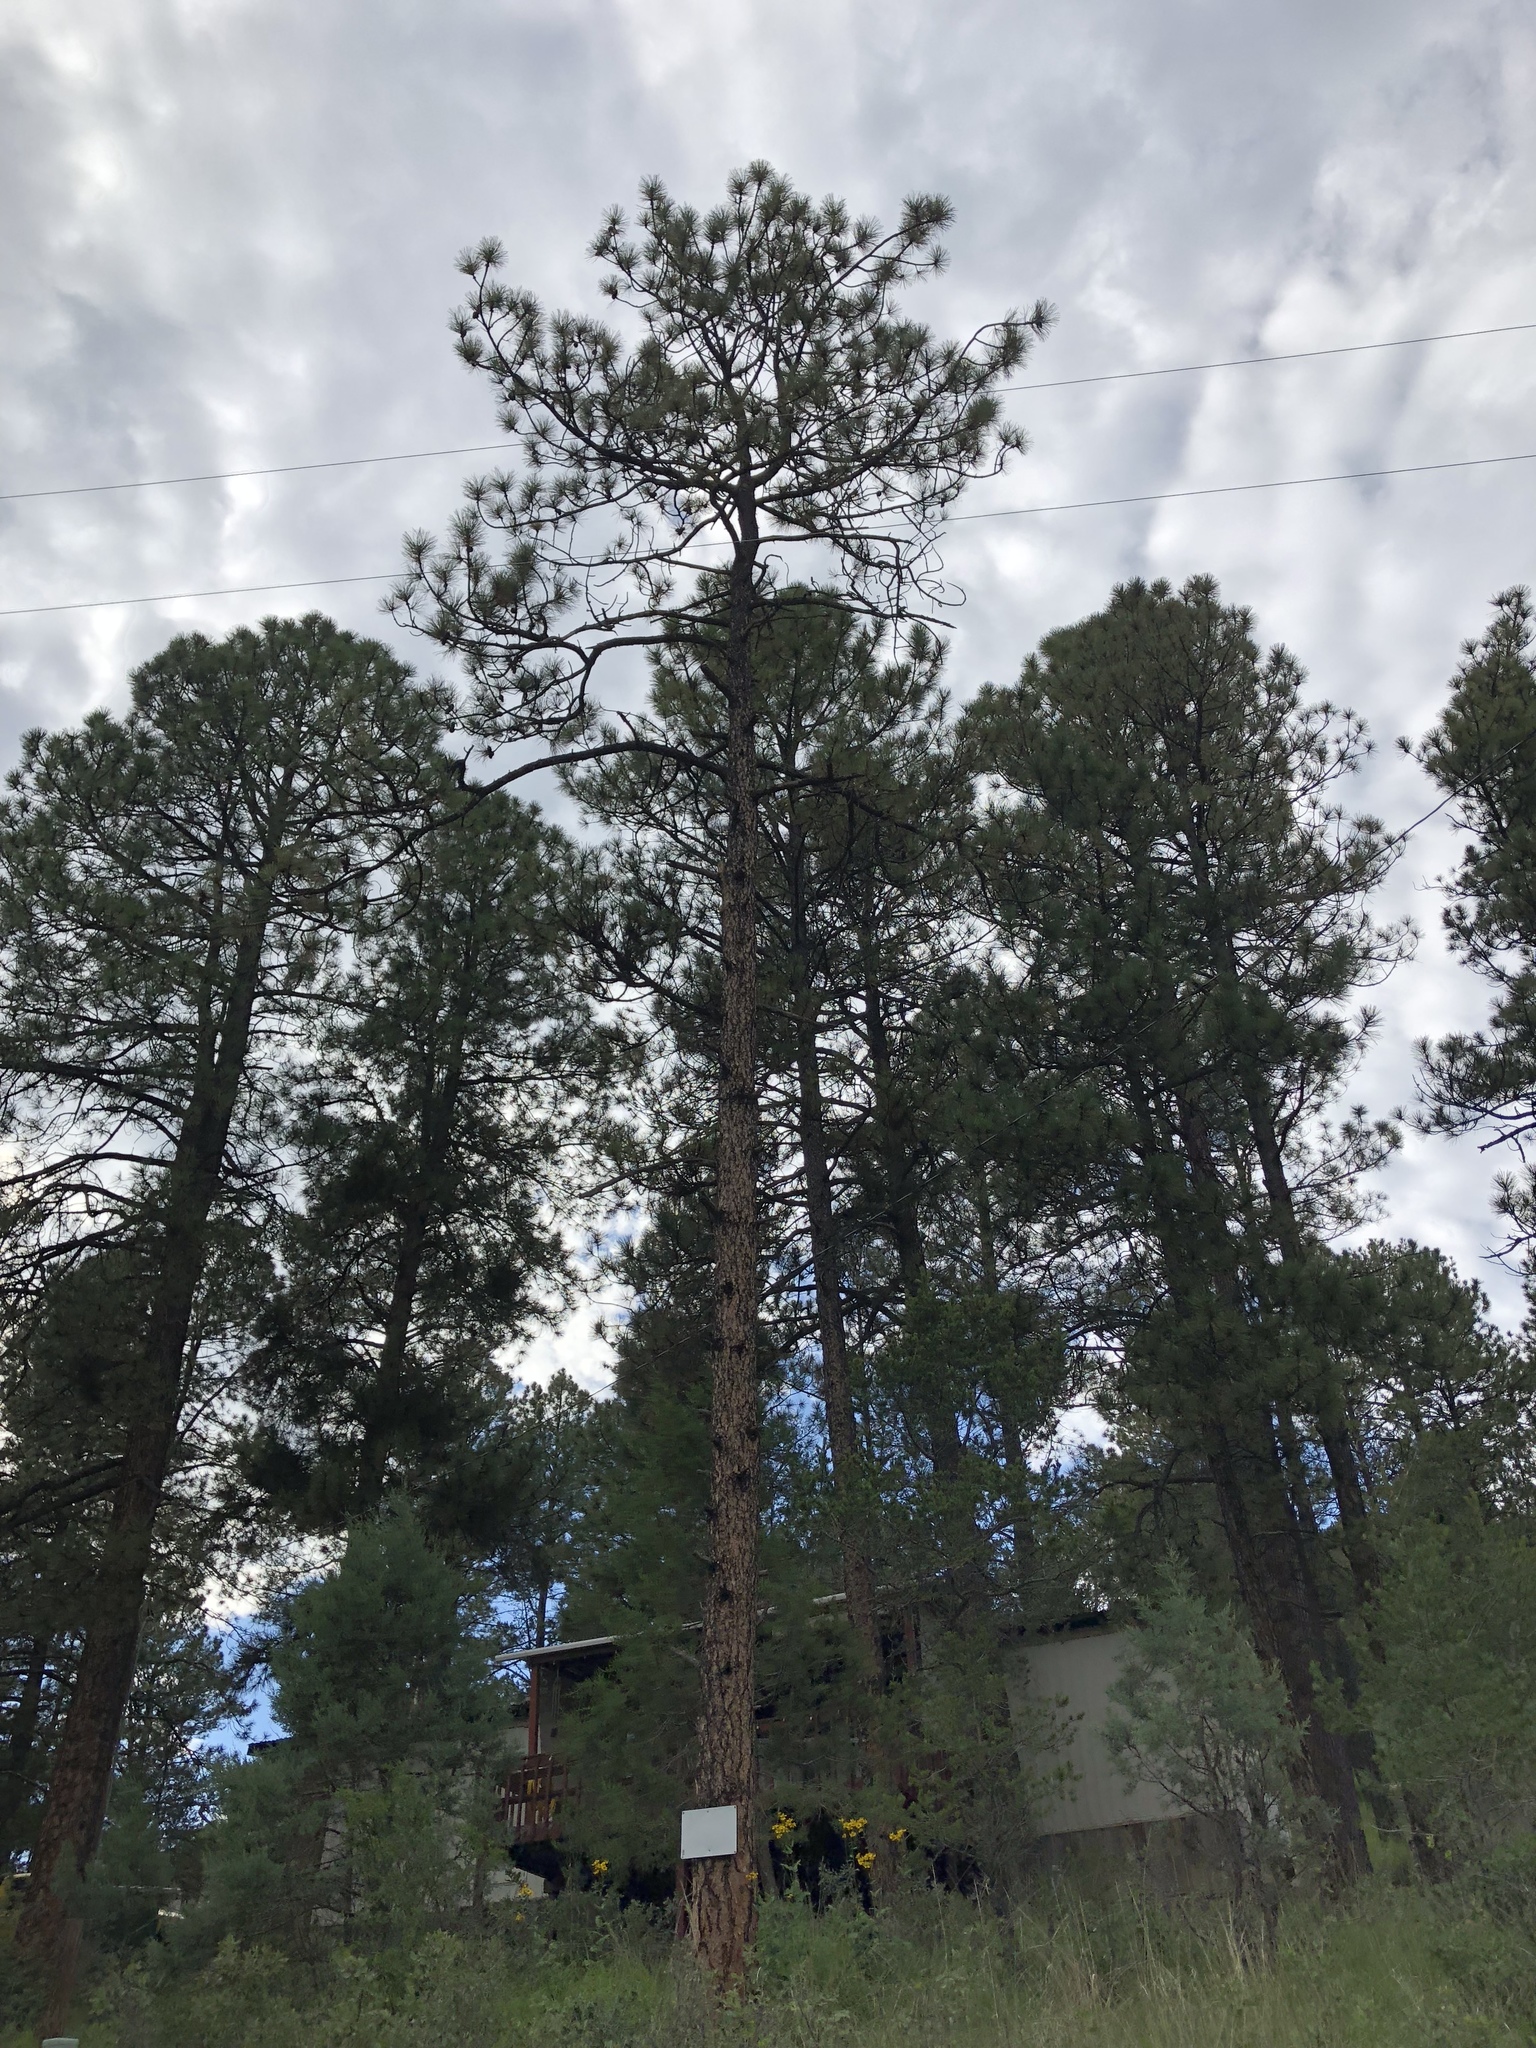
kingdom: Plantae
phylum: Tracheophyta
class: Pinopsida
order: Pinales
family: Pinaceae
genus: Pinus
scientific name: Pinus ponderosa
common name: Western yellow-pine
